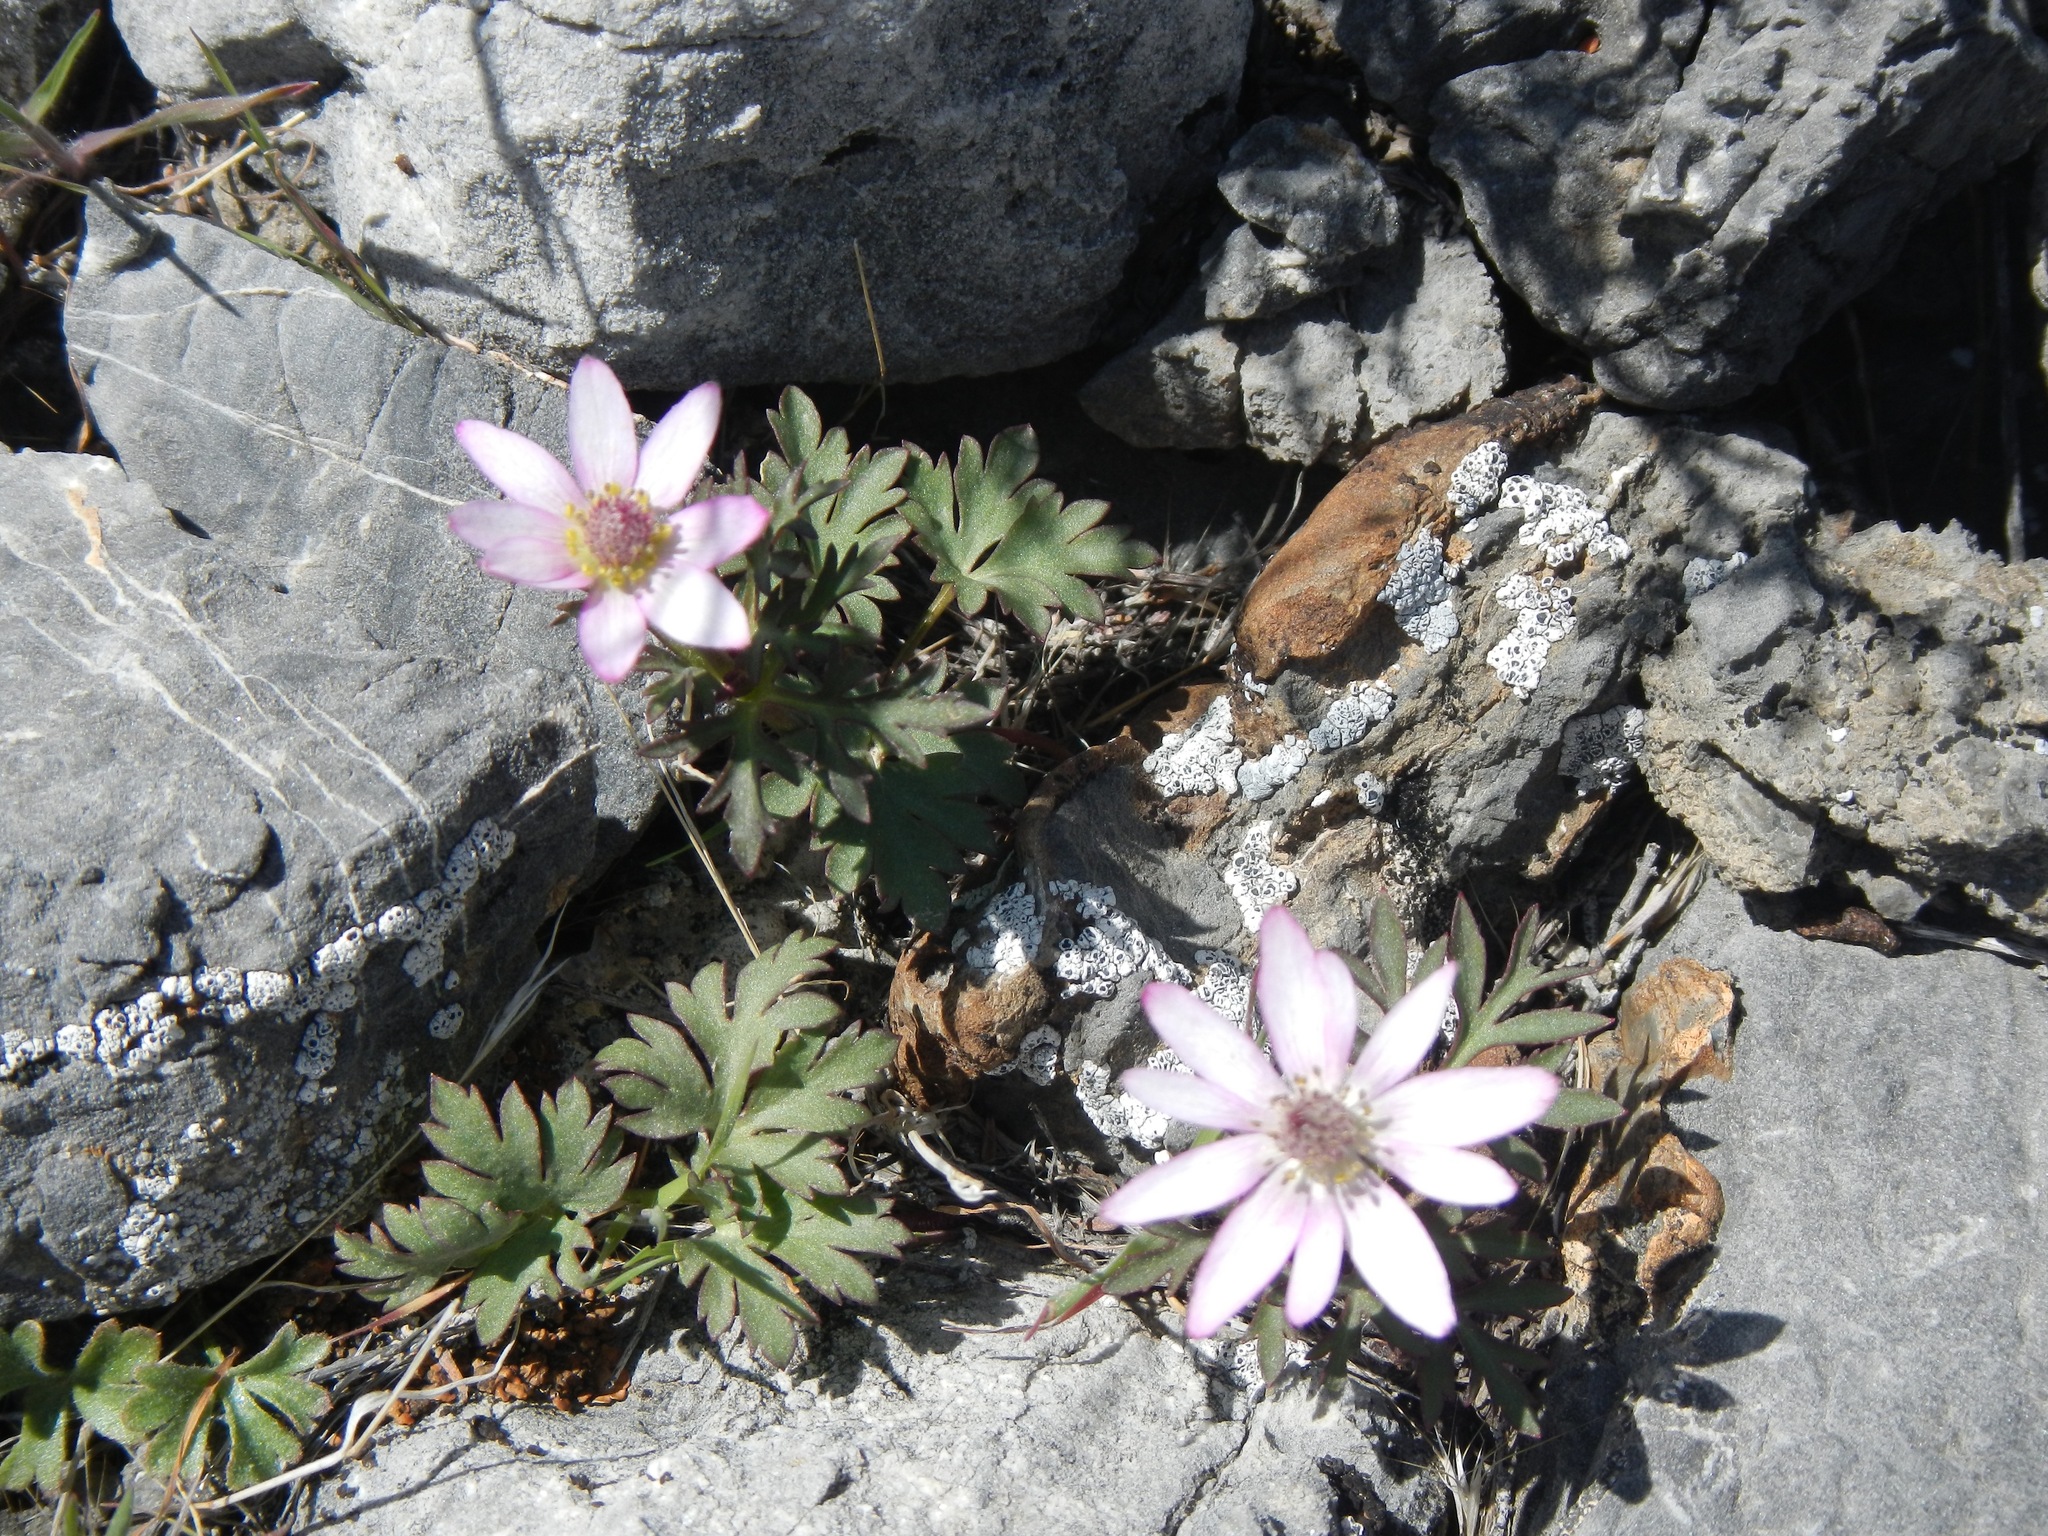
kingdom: Plantae
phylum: Tracheophyta
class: Magnoliopsida
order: Ranunculales
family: Ranunculaceae
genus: Anemone
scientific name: Anemone tuberosa
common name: Desert anemone
